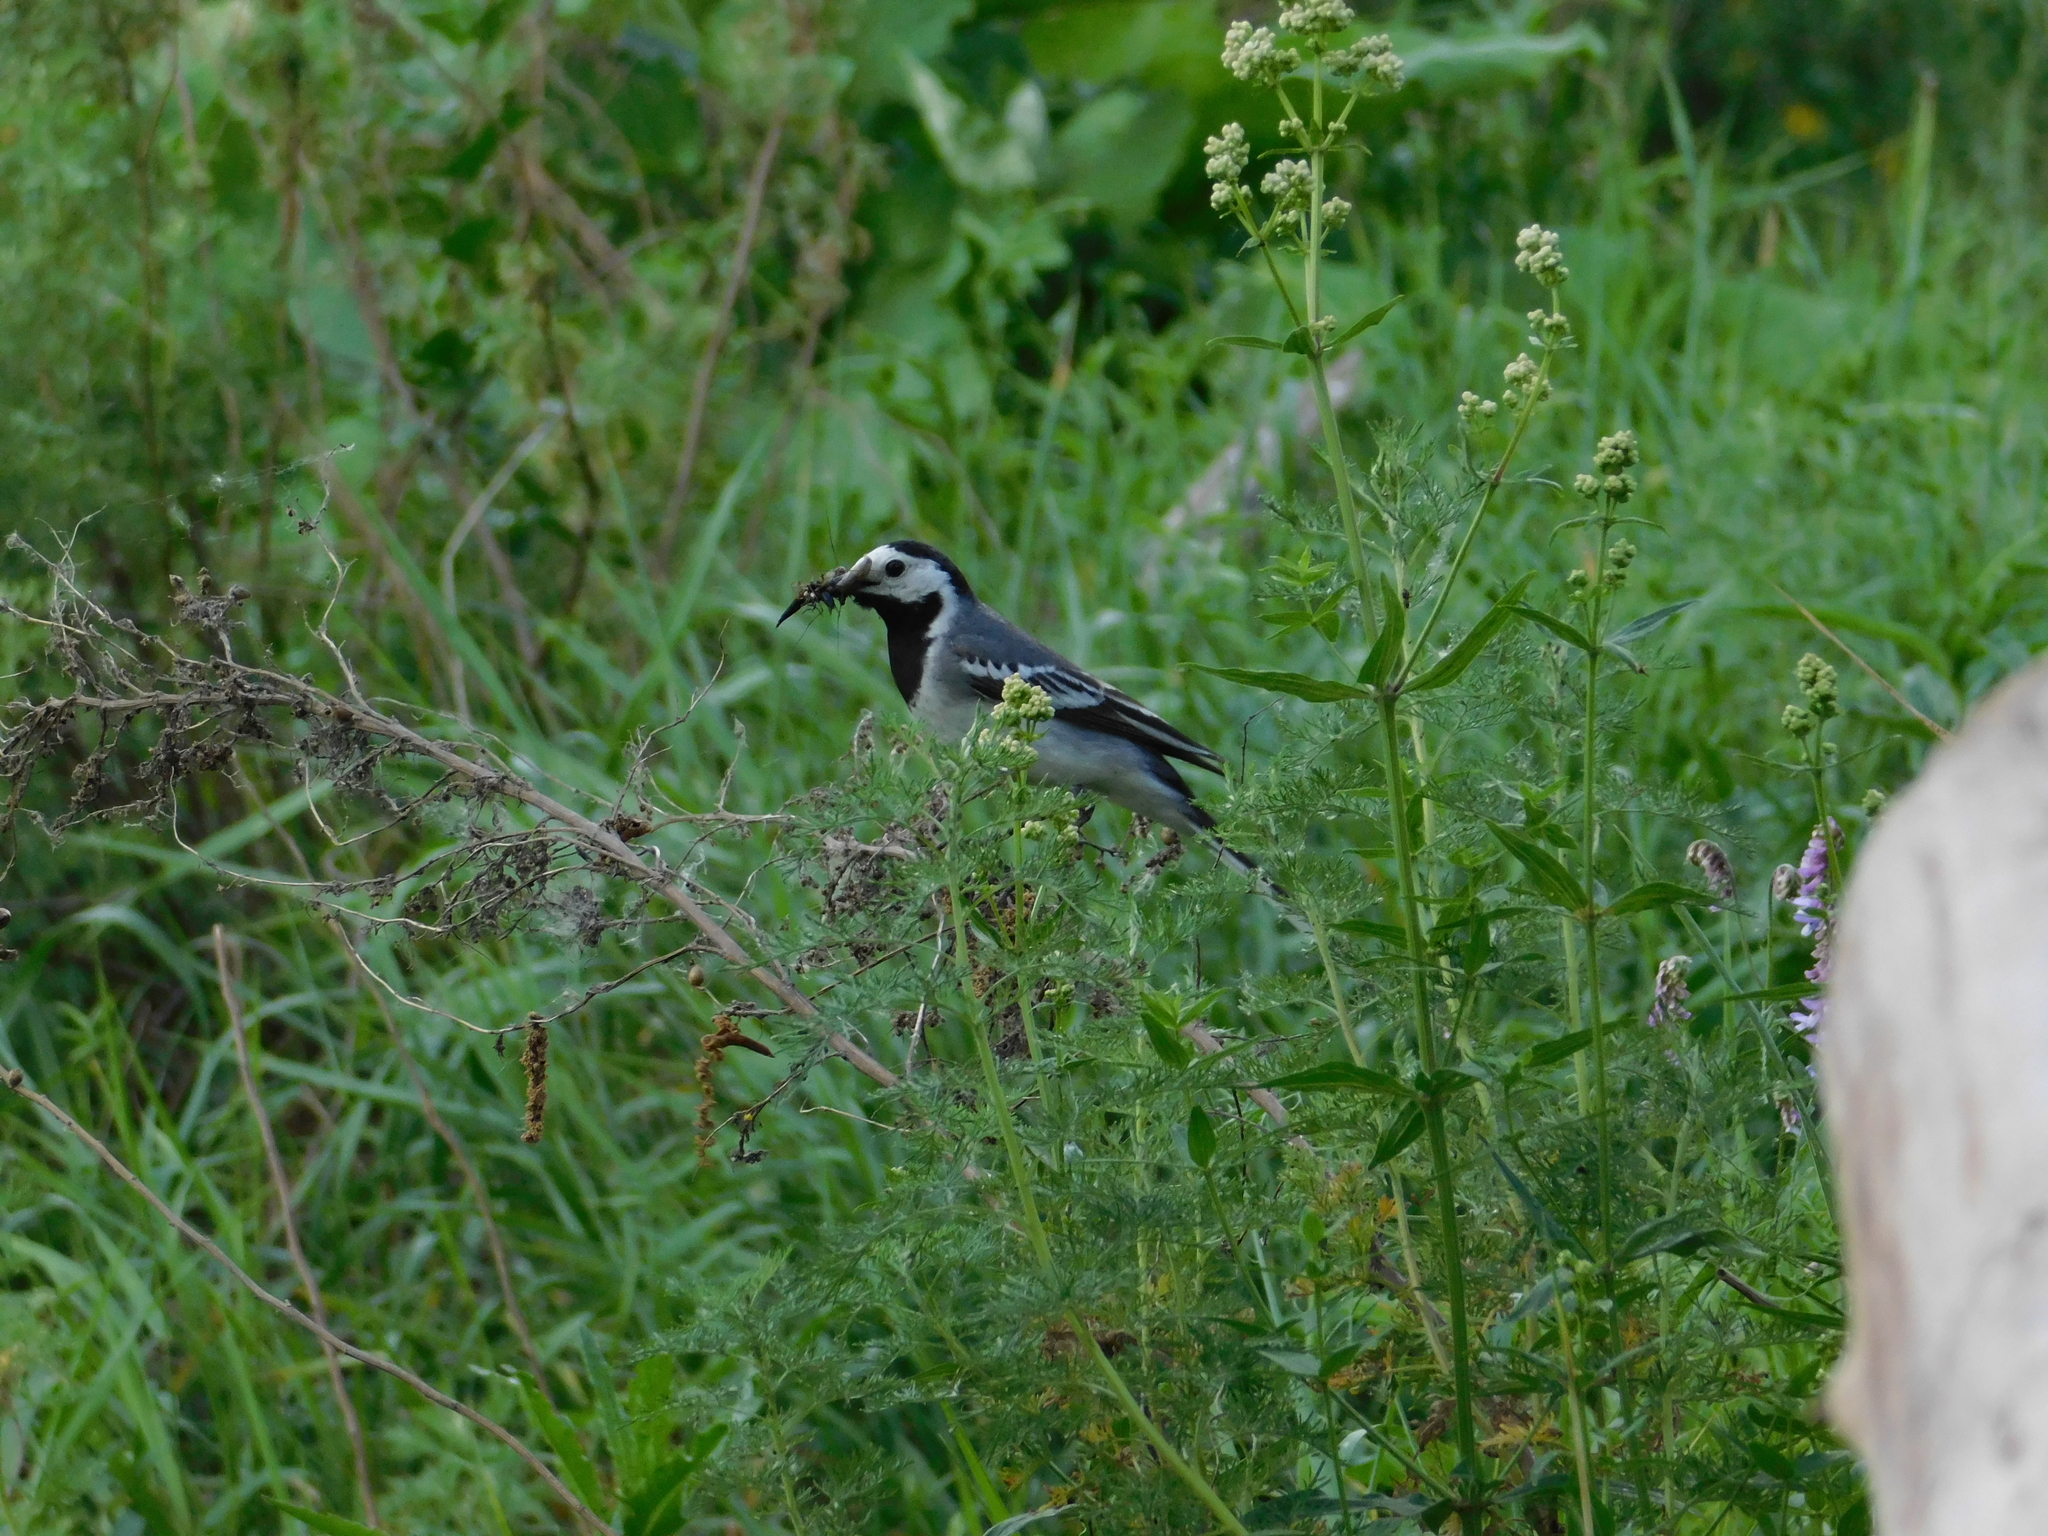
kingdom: Animalia
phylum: Chordata
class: Aves
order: Passeriformes
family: Motacillidae
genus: Motacilla
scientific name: Motacilla alba
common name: White wagtail
